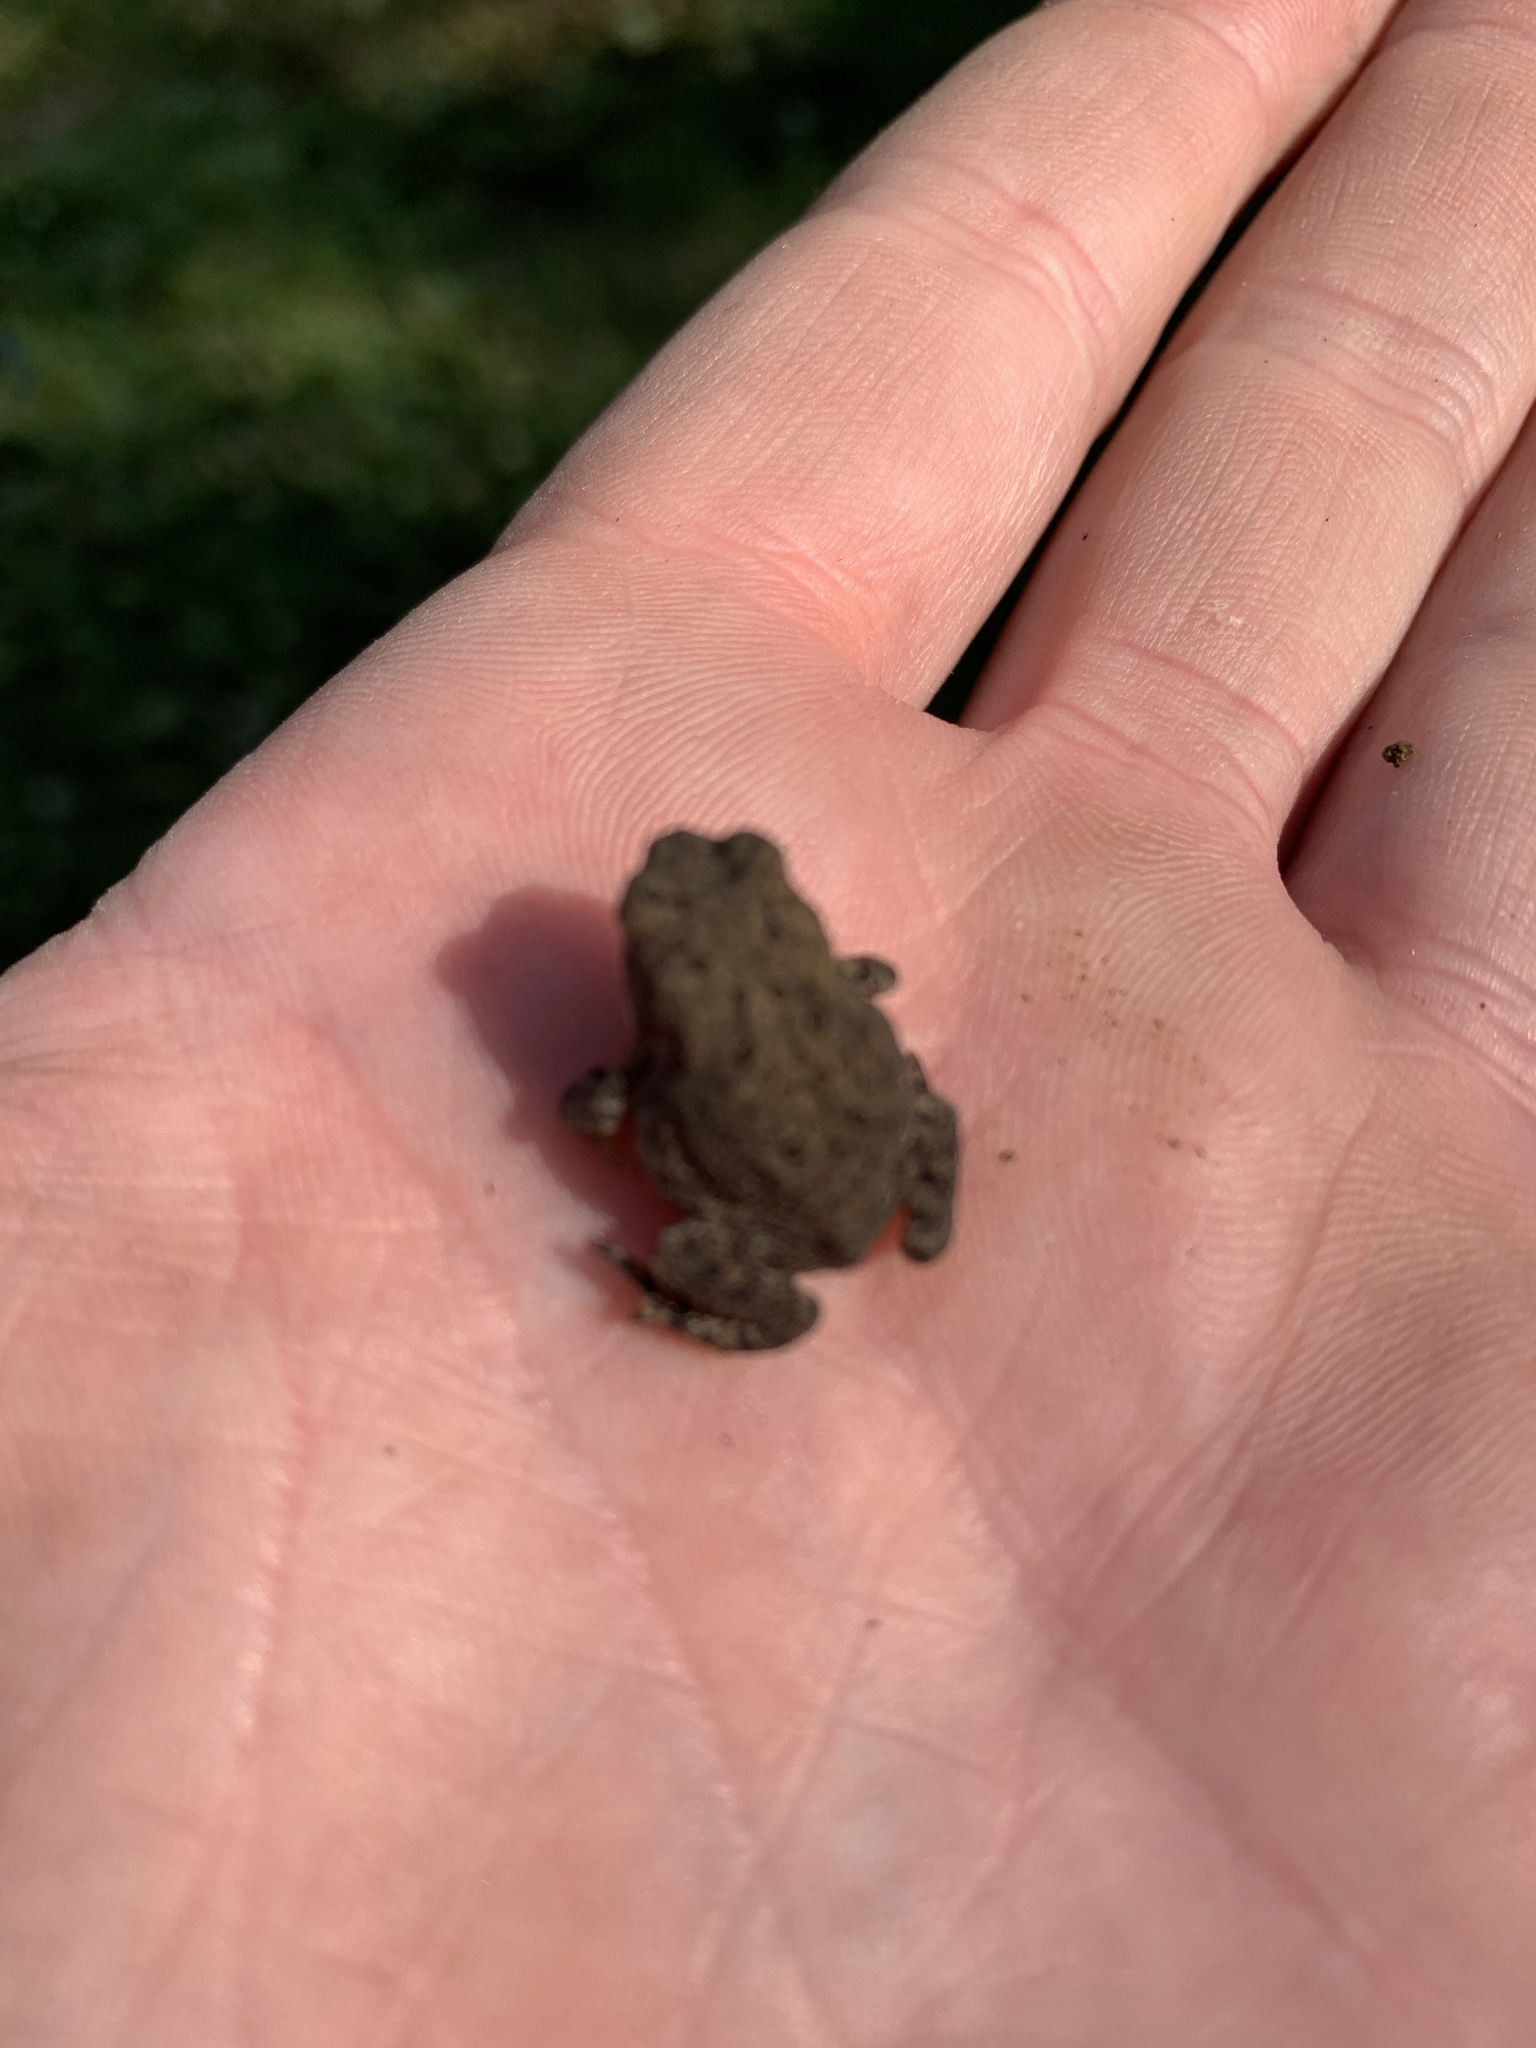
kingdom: Animalia
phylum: Chordata
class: Amphibia
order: Anura
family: Bufonidae
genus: Anaxyrus
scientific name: Anaxyrus americanus
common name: American toad
